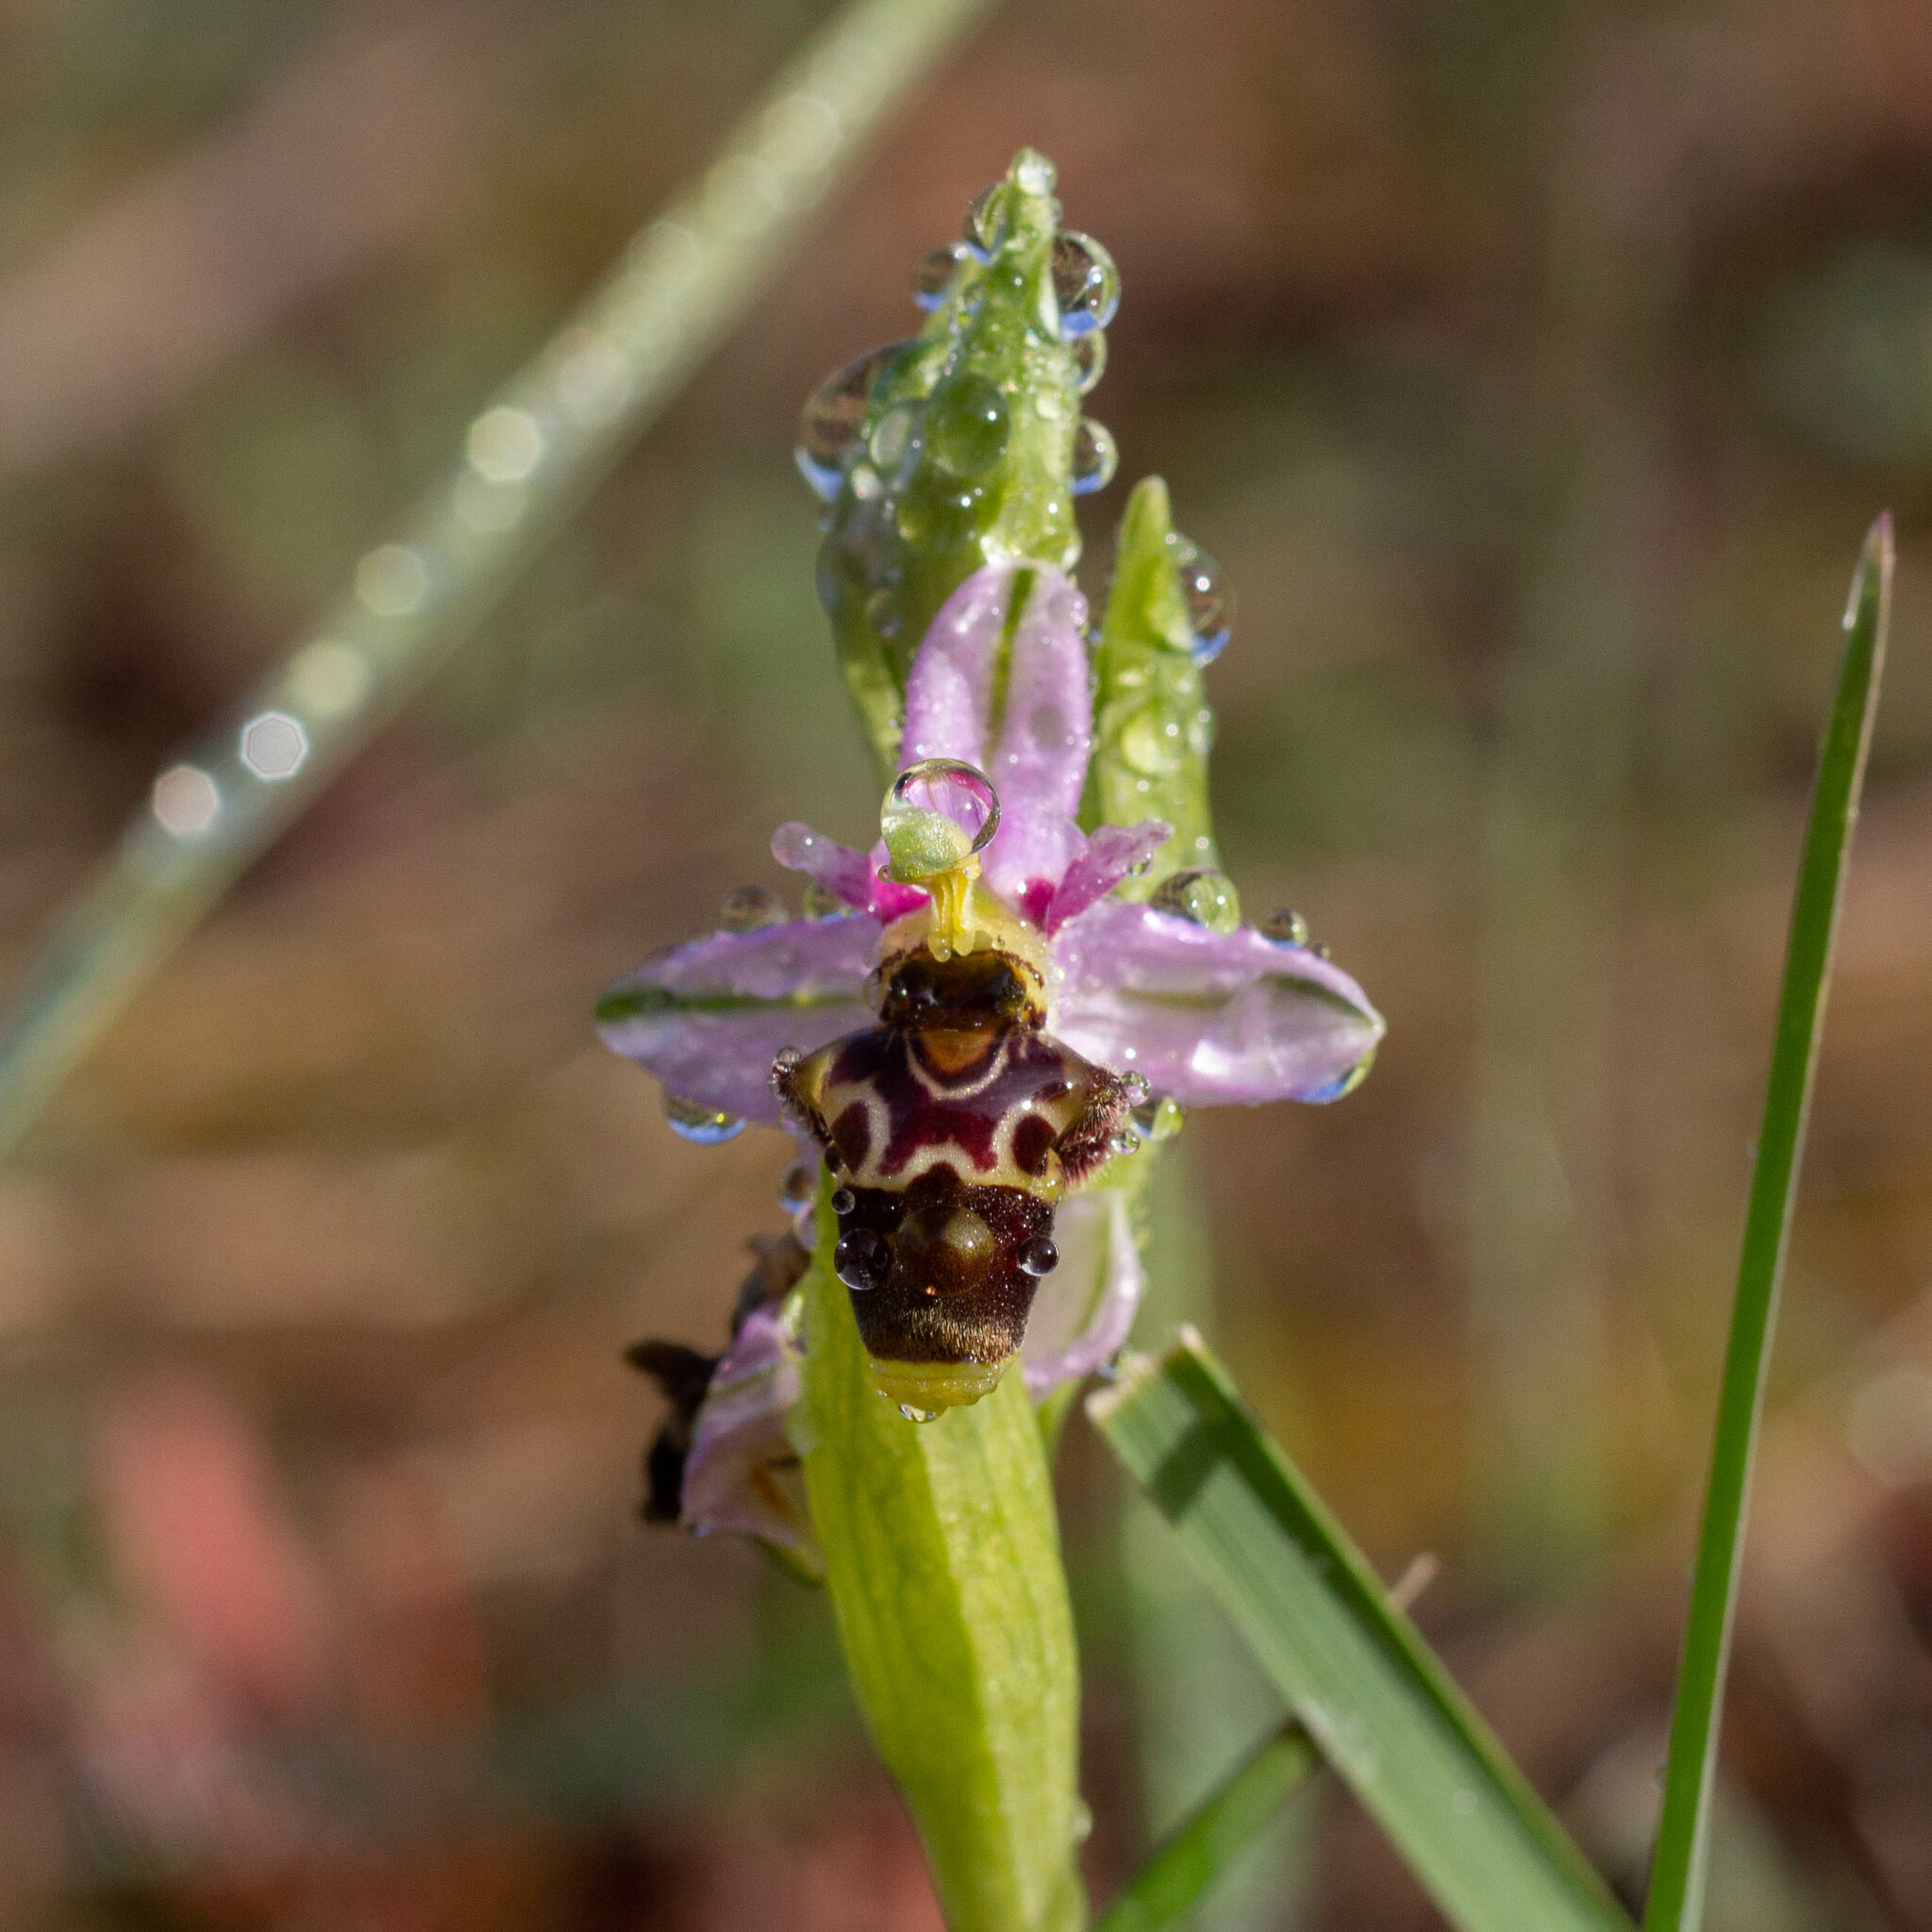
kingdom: Plantae
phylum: Tracheophyta
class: Liliopsida
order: Asparagales
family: Orchidaceae
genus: Ophrys
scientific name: Ophrys scolopax
